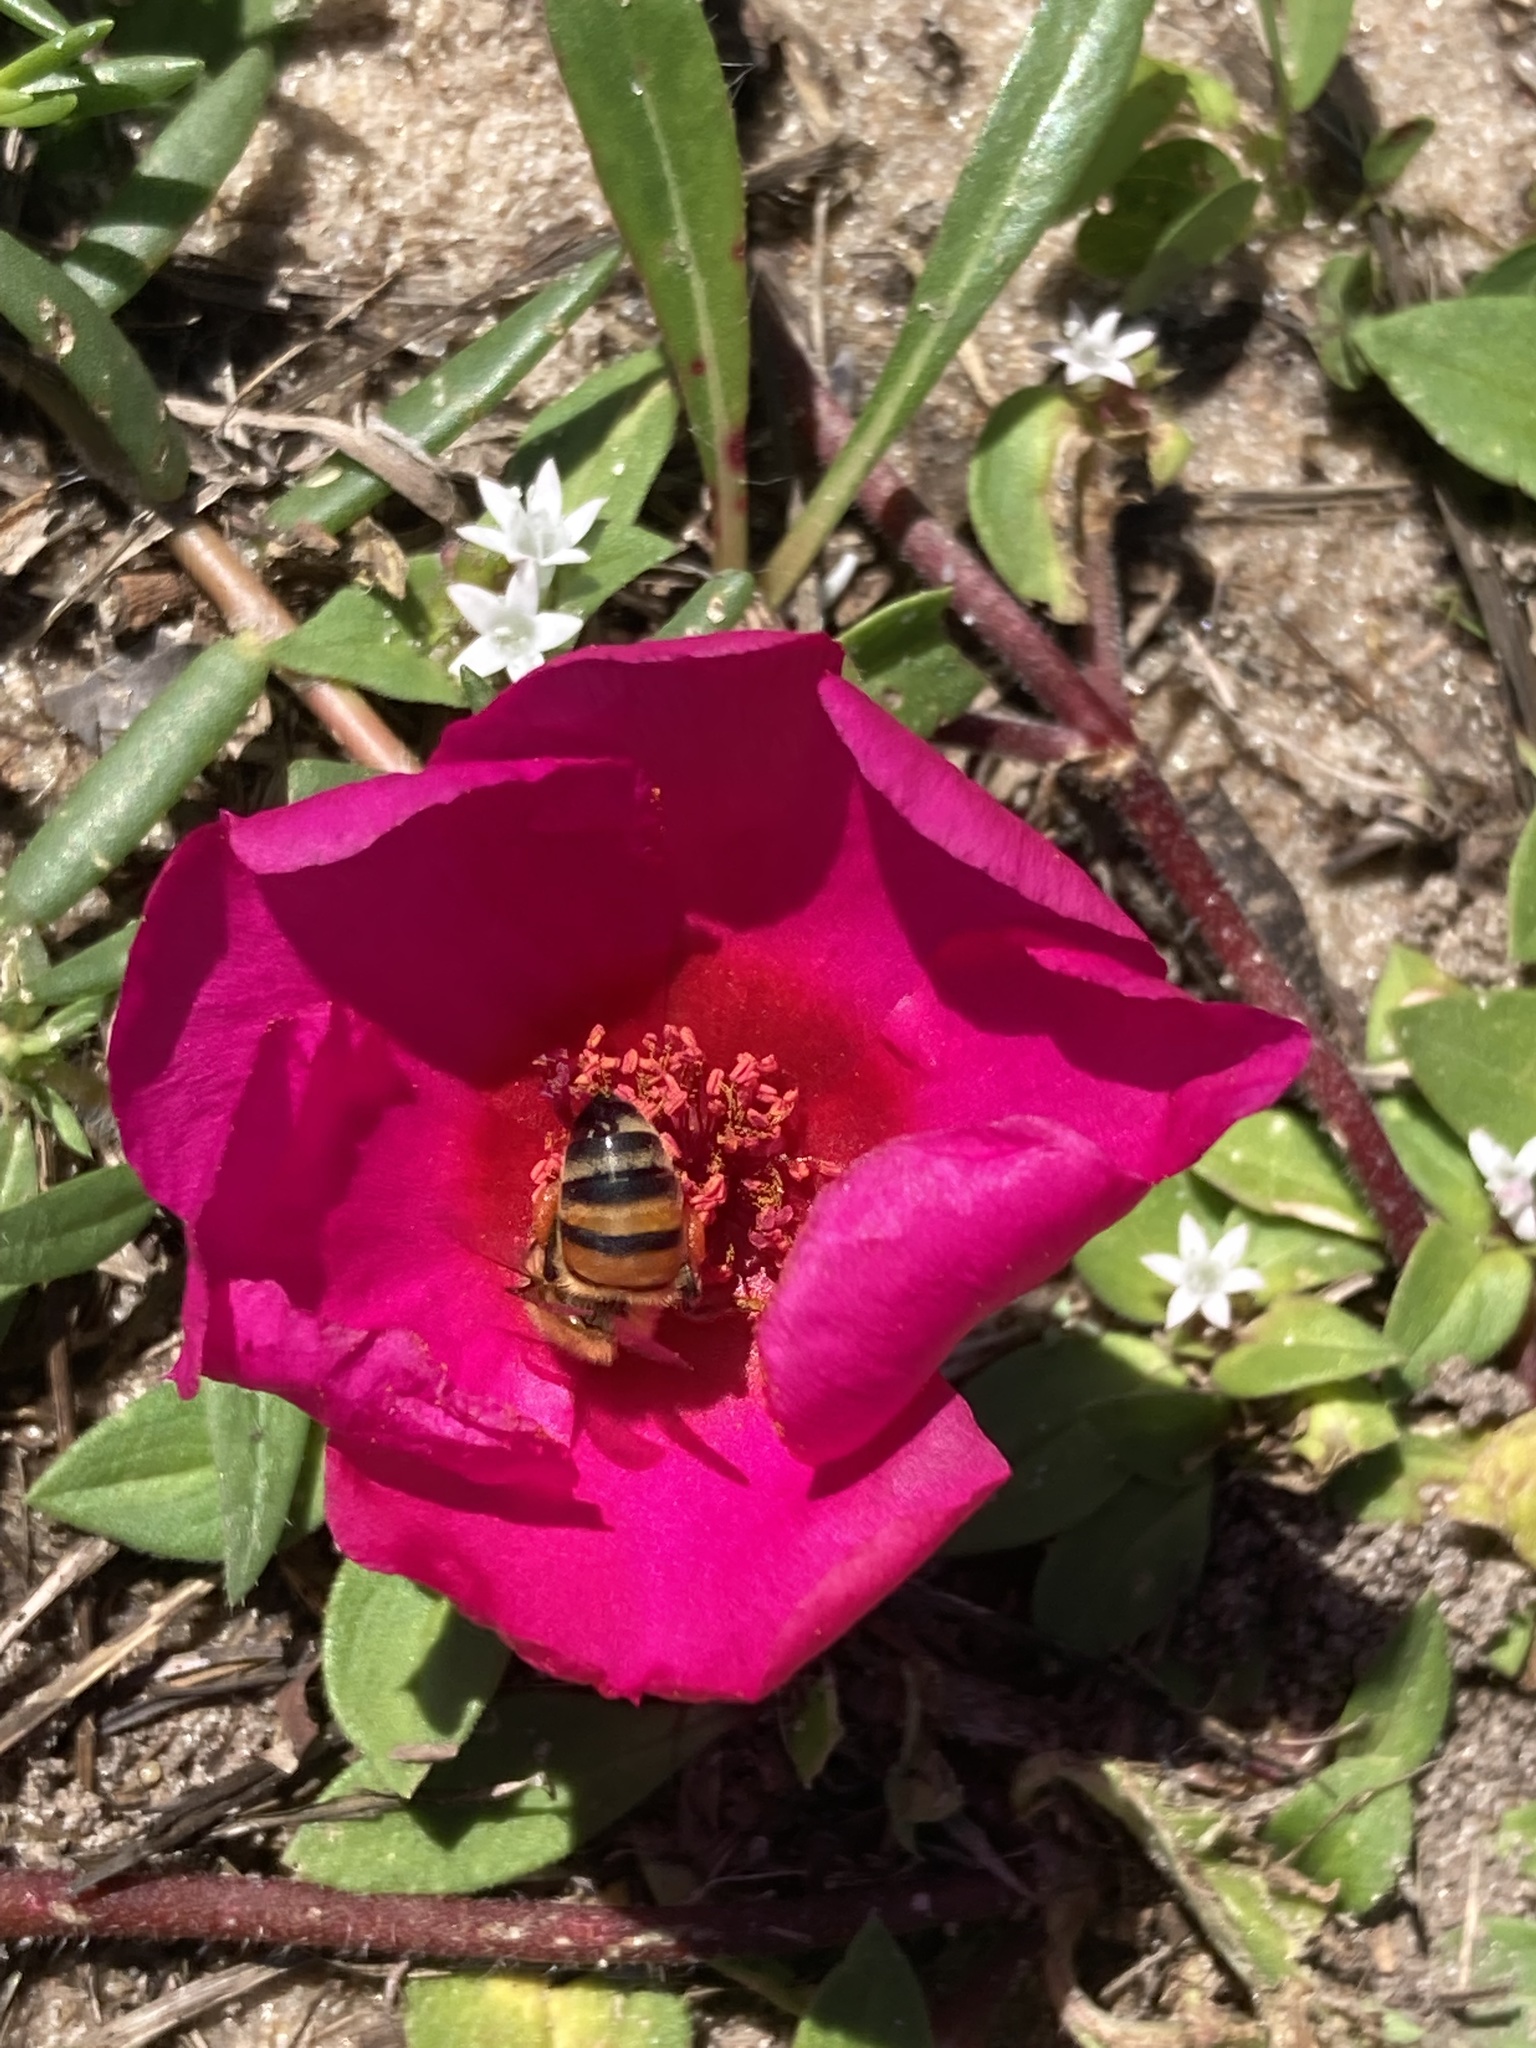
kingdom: Animalia
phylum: Arthropoda
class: Insecta
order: Hymenoptera
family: Apidae
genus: Apis
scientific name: Apis mellifera
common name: Honey bee
